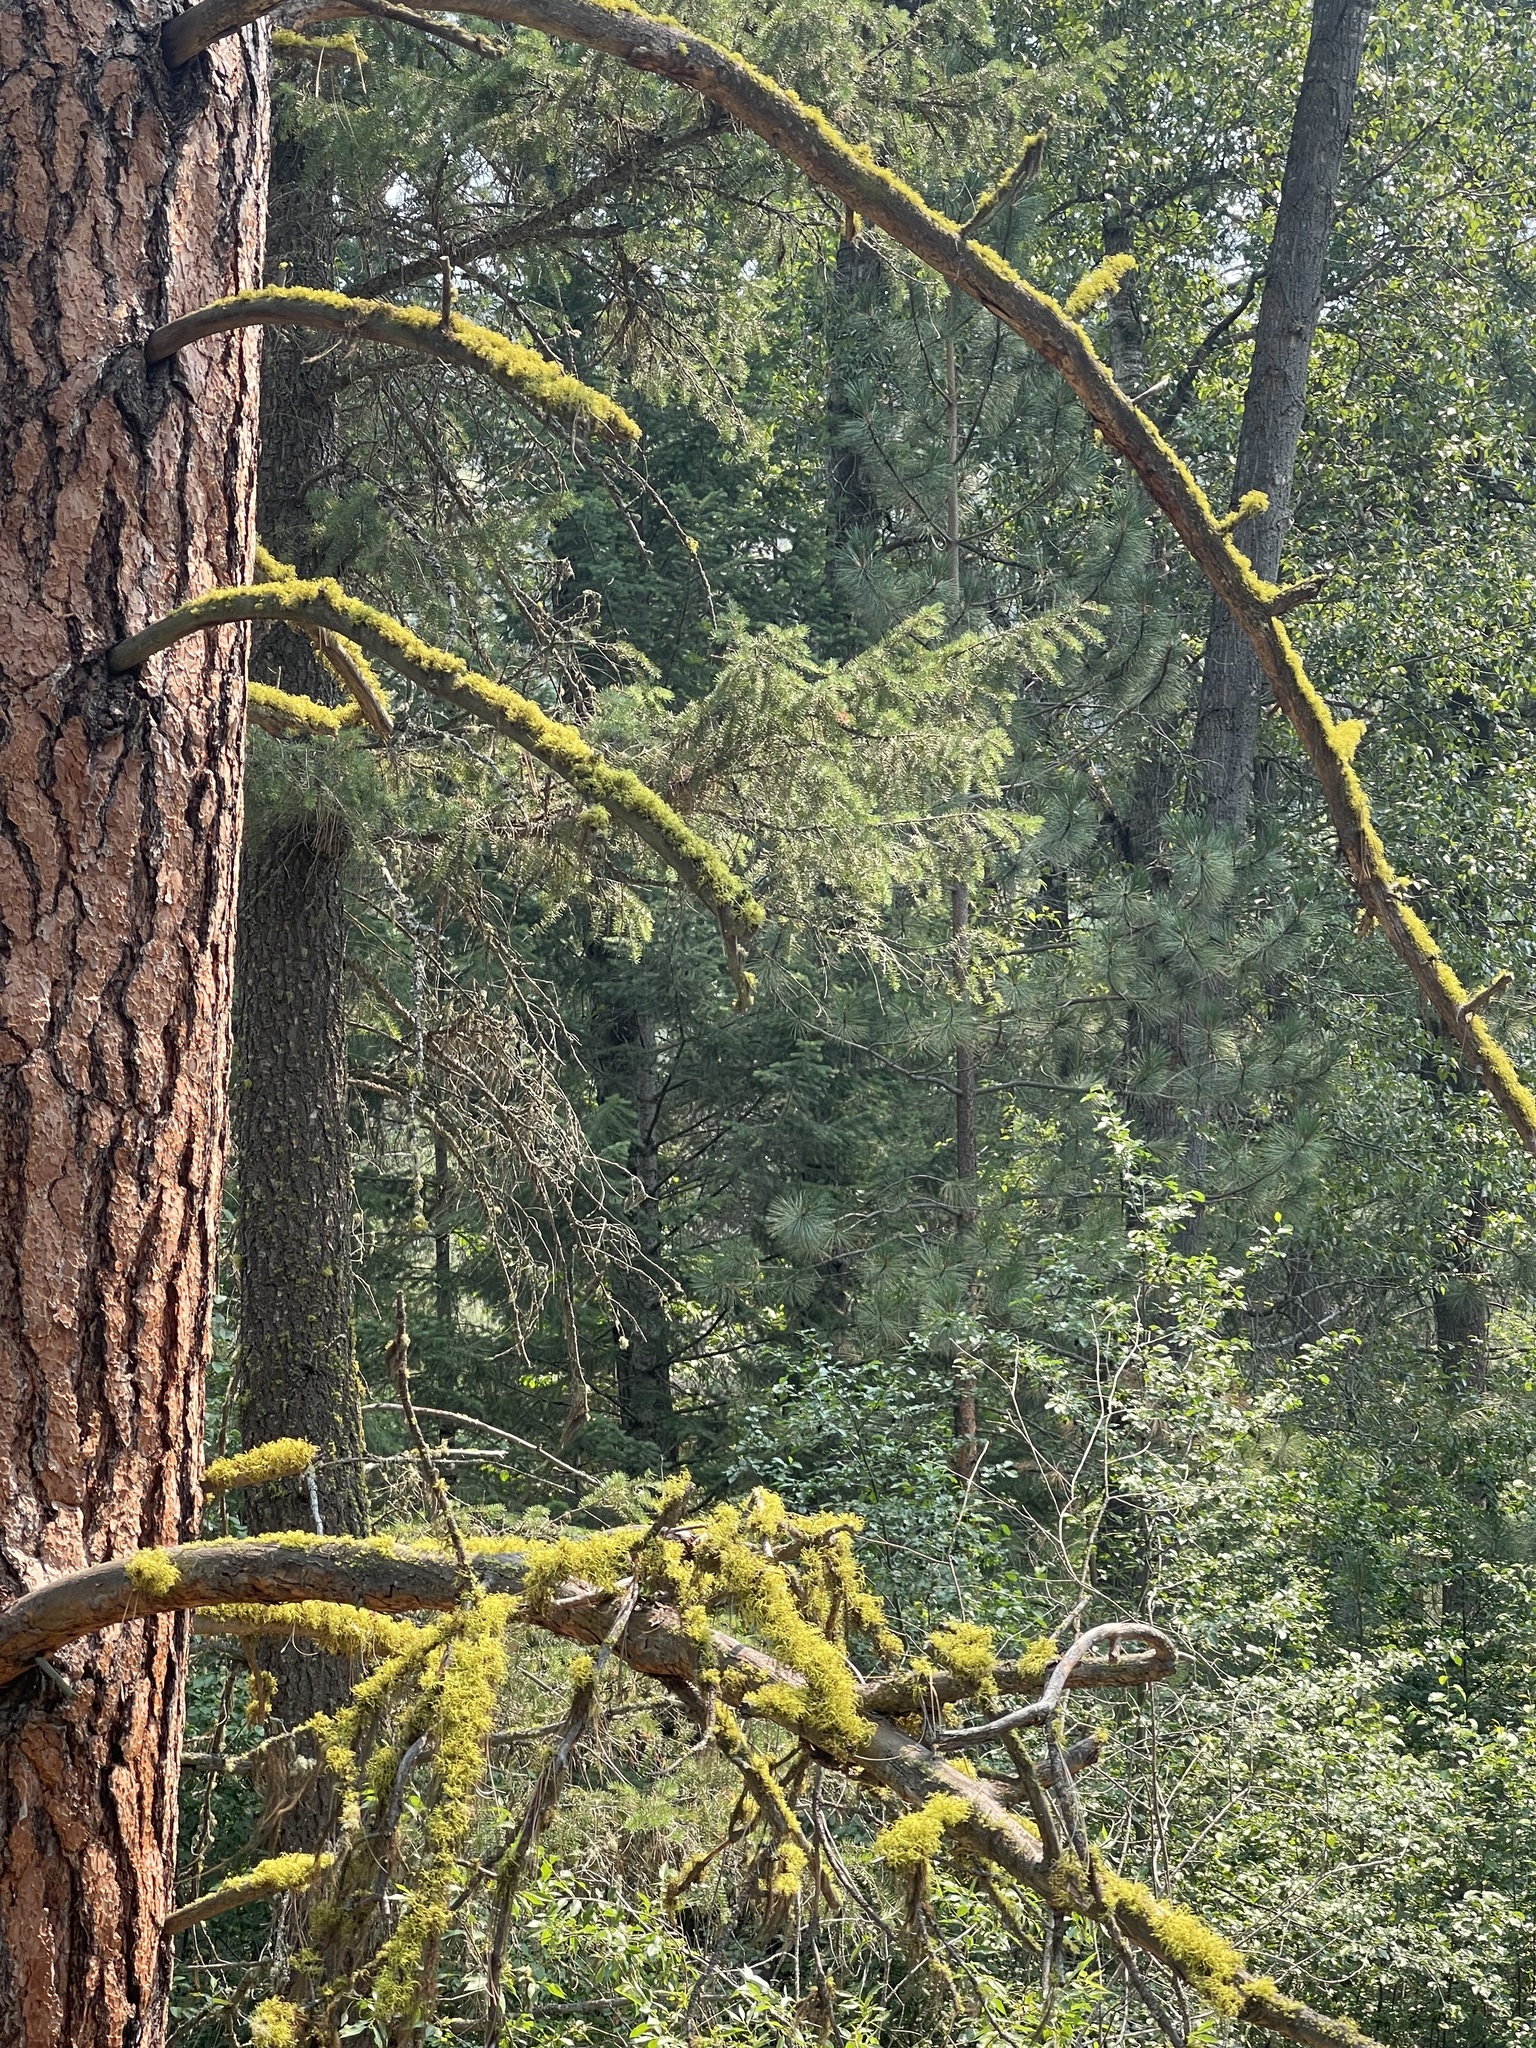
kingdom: Fungi
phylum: Ascomycota
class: Lecanoromycetes
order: Lecanorales
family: Parmeliaceae
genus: Letharia
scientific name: Letharia vulpina
